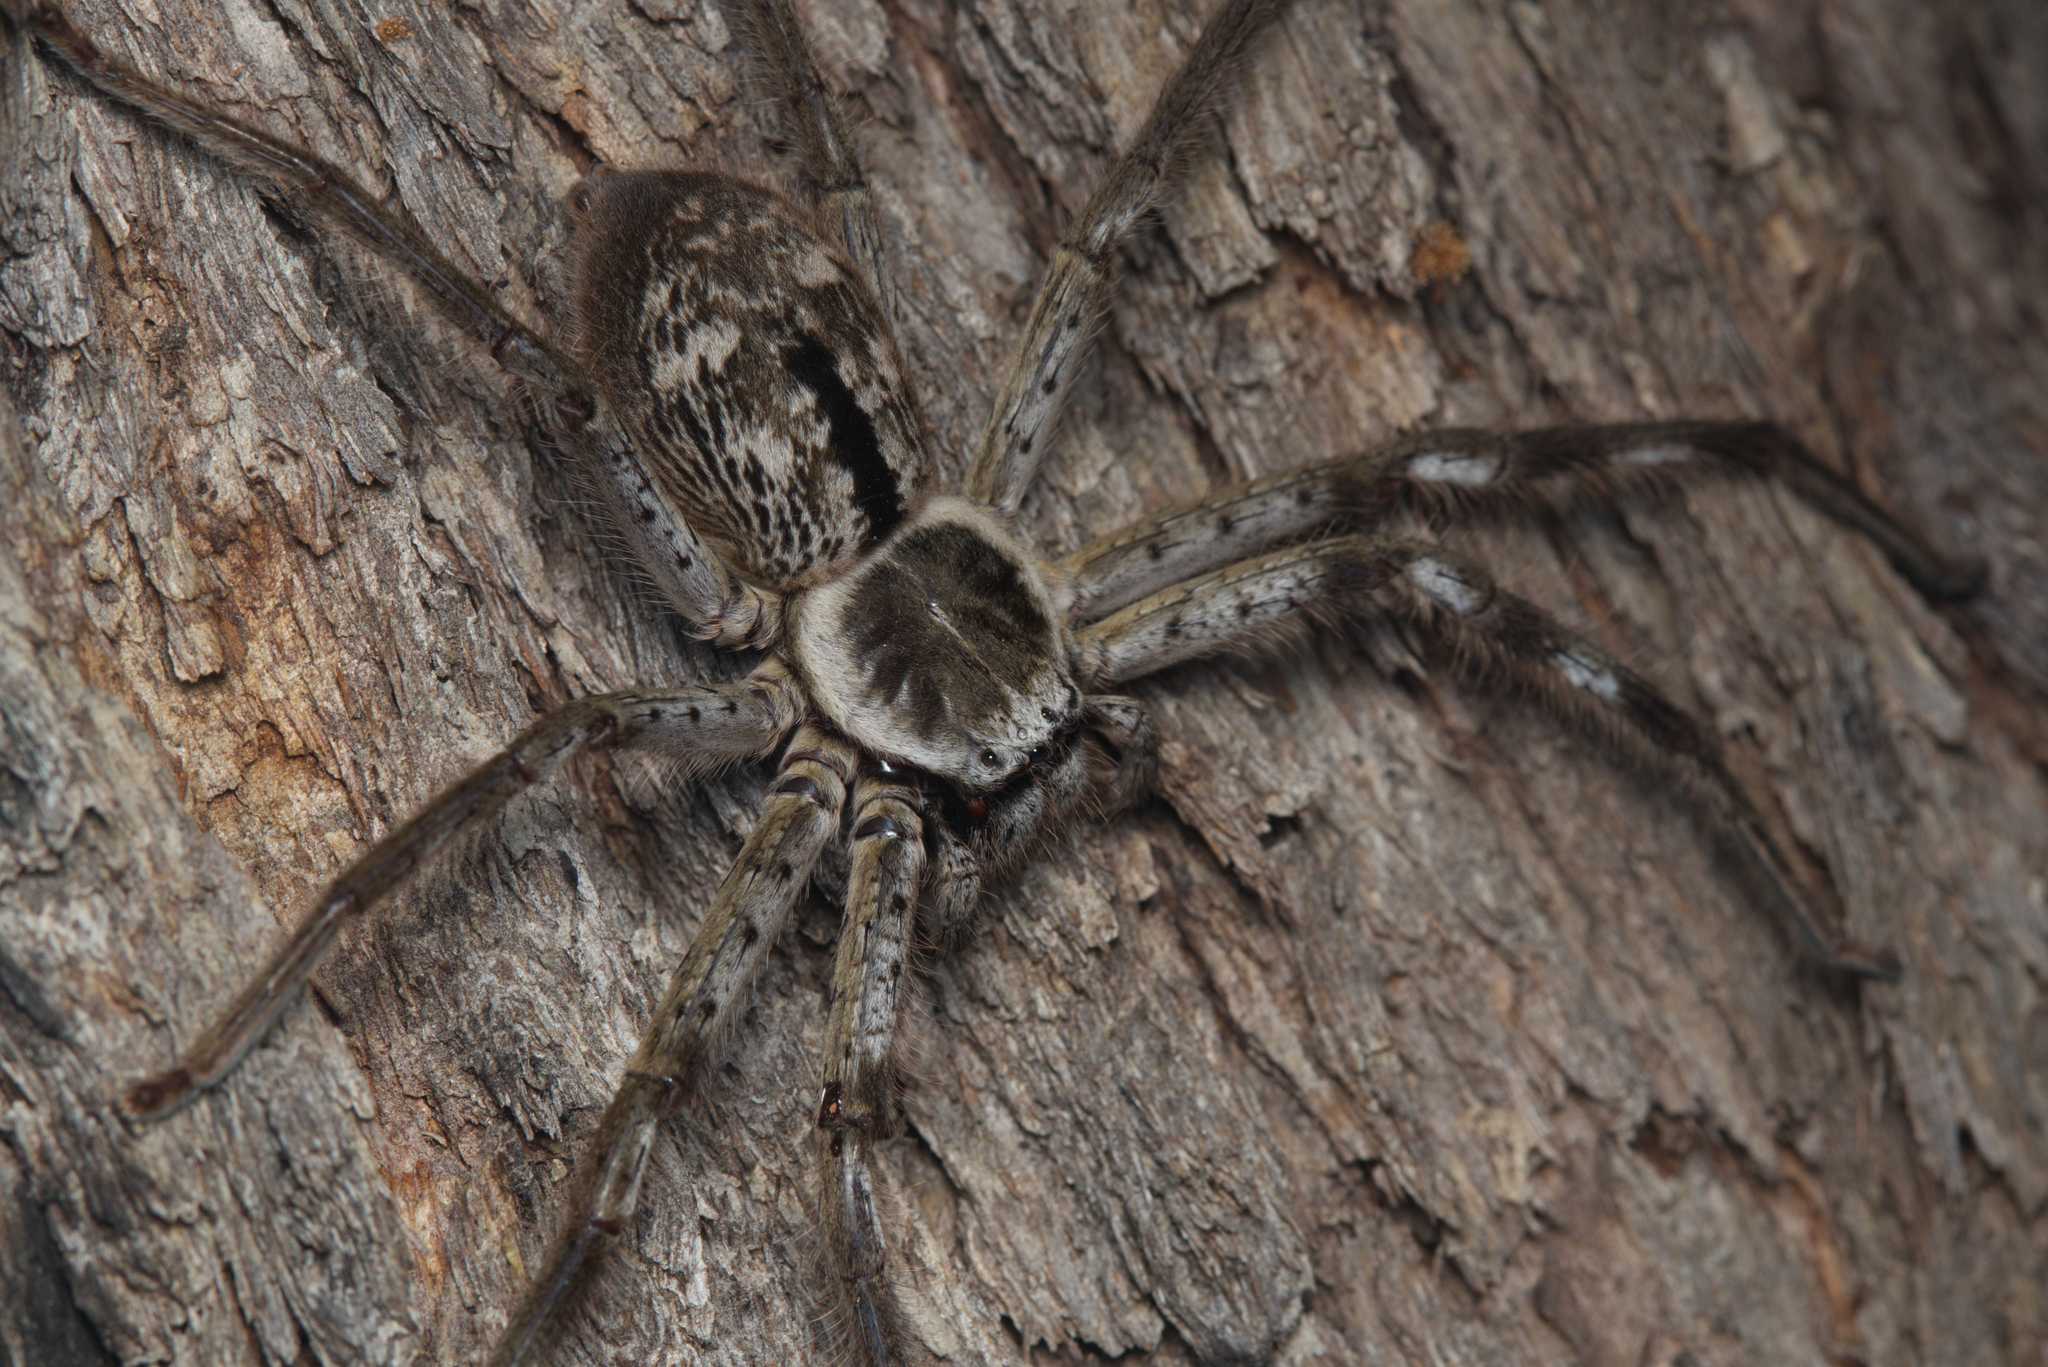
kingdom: Animalia
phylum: Arthropoda
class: Arachnida
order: Araneae
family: Sparassidae
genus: Holconia
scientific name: Holconia immanis
